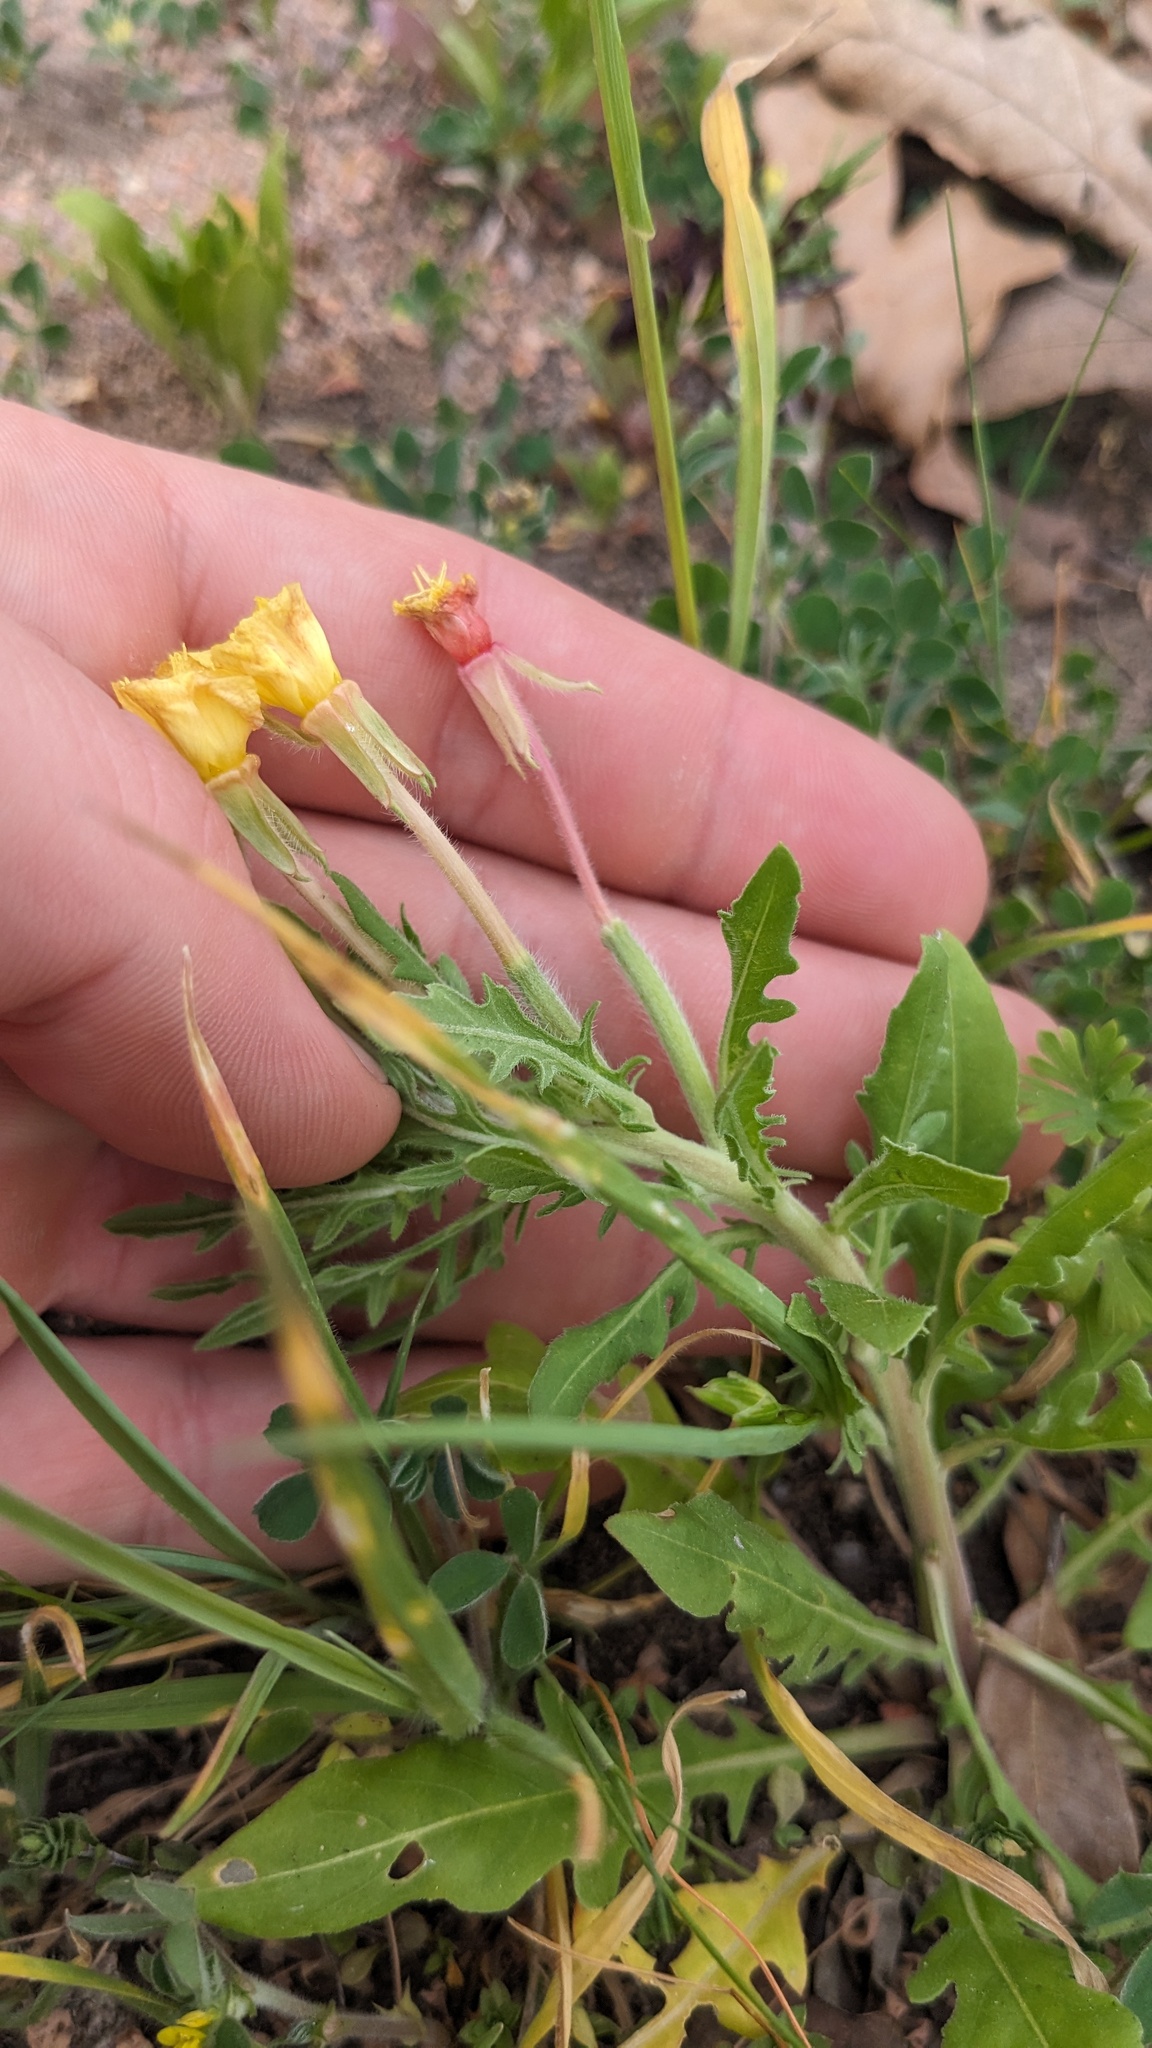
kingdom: Plantae
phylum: Tracheophyta
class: Magnoliopsida
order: Myrtales
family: Onagraceae
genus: Oenothera
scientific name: Oenothera laciniata
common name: Cut-leaved evening-primrose
